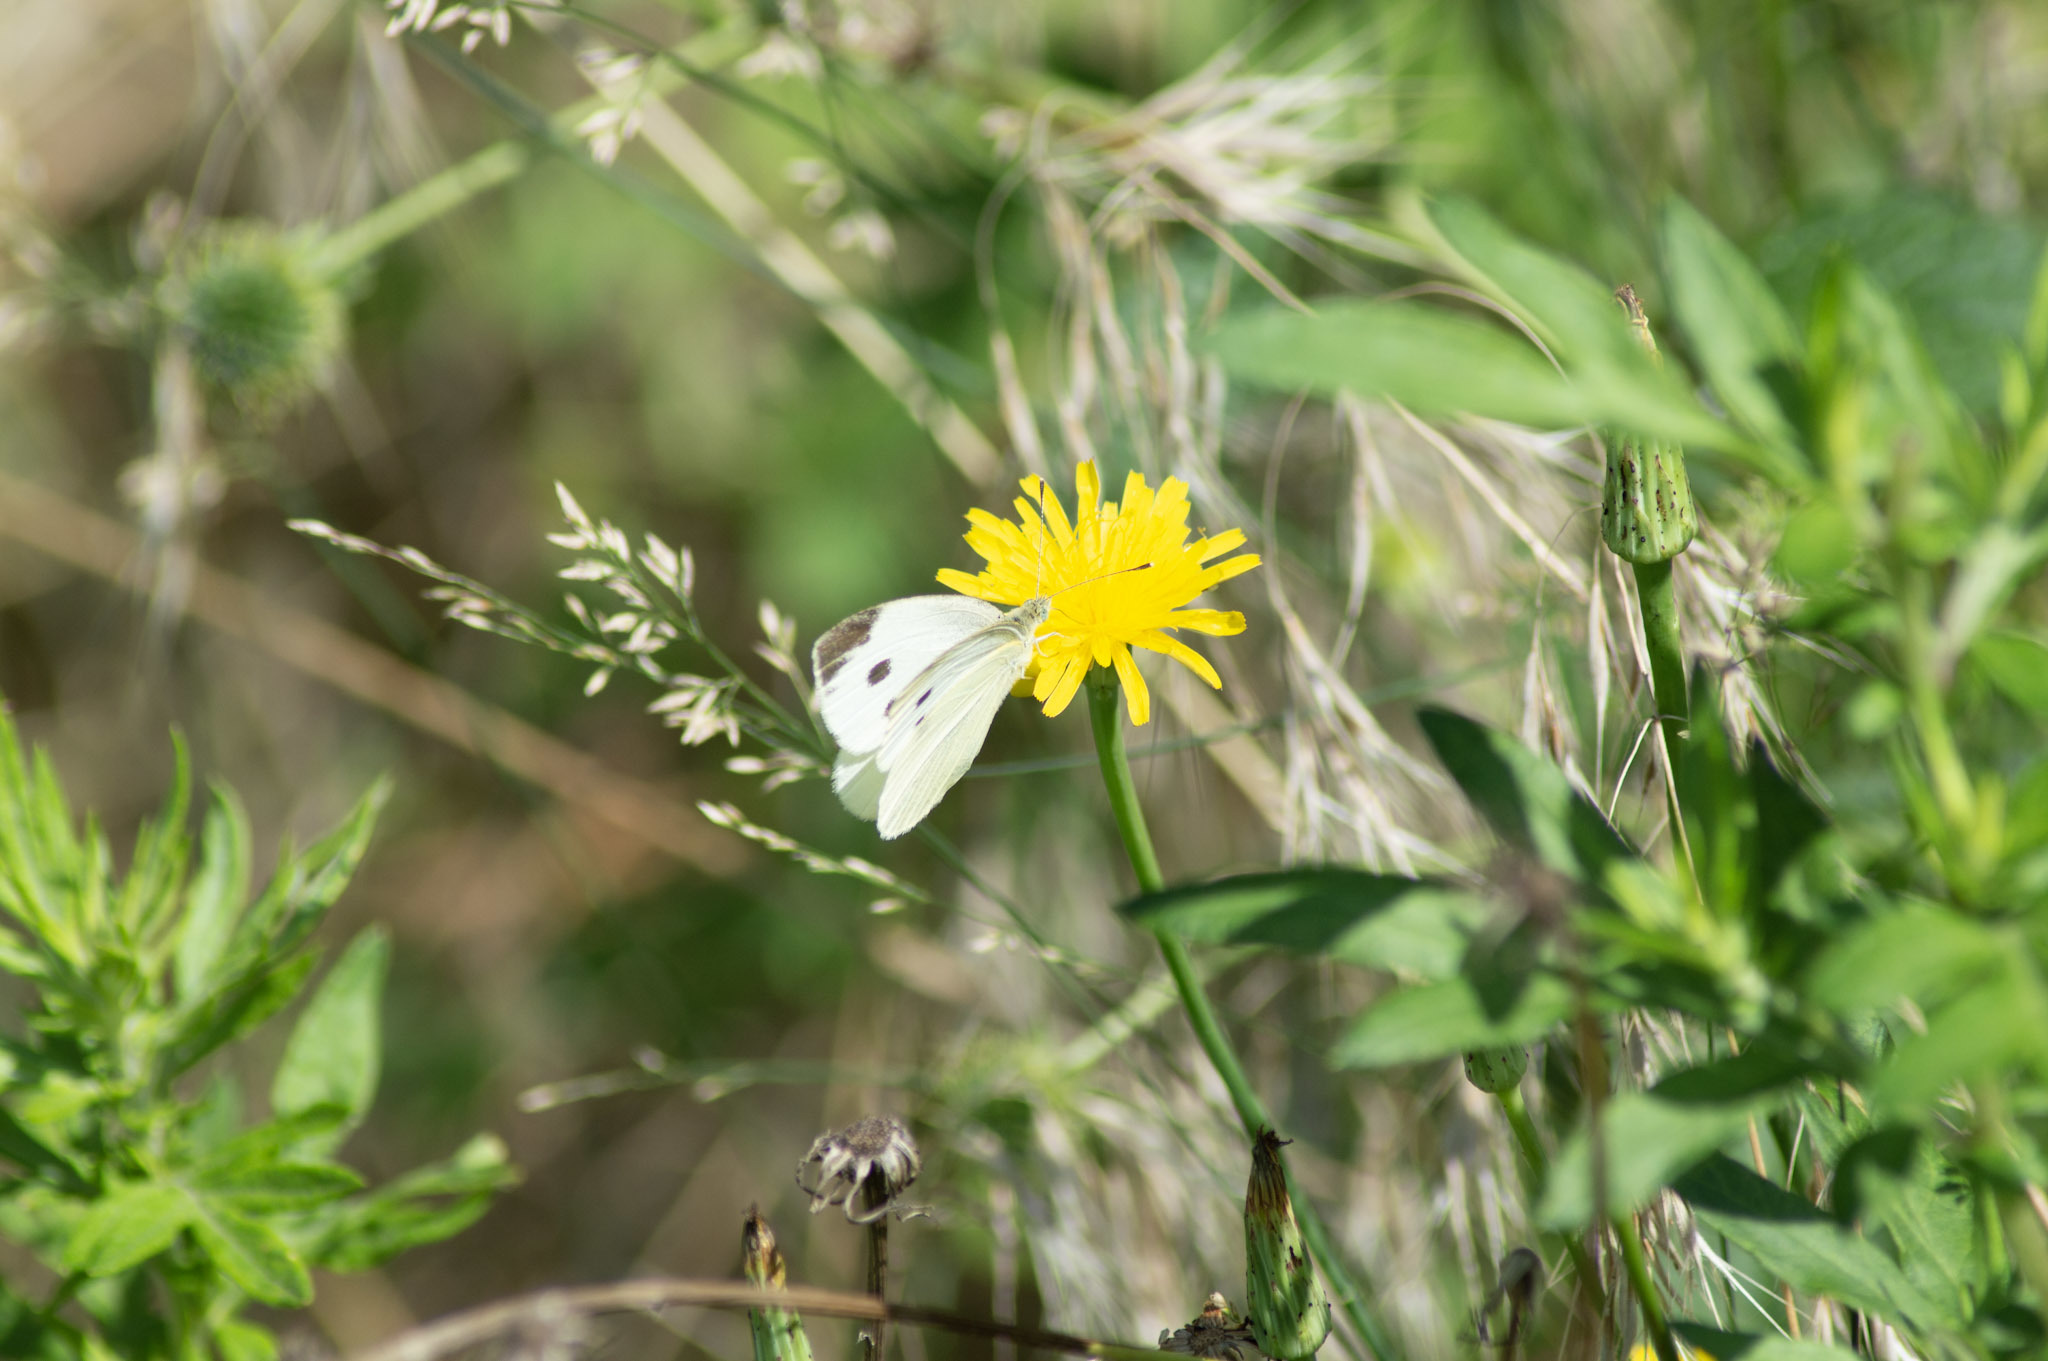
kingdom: Animalia
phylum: Arthropoda
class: Insecta
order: Lepidoptera
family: Pieridae
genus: Pieris
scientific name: Pieris rapae
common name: Small white
